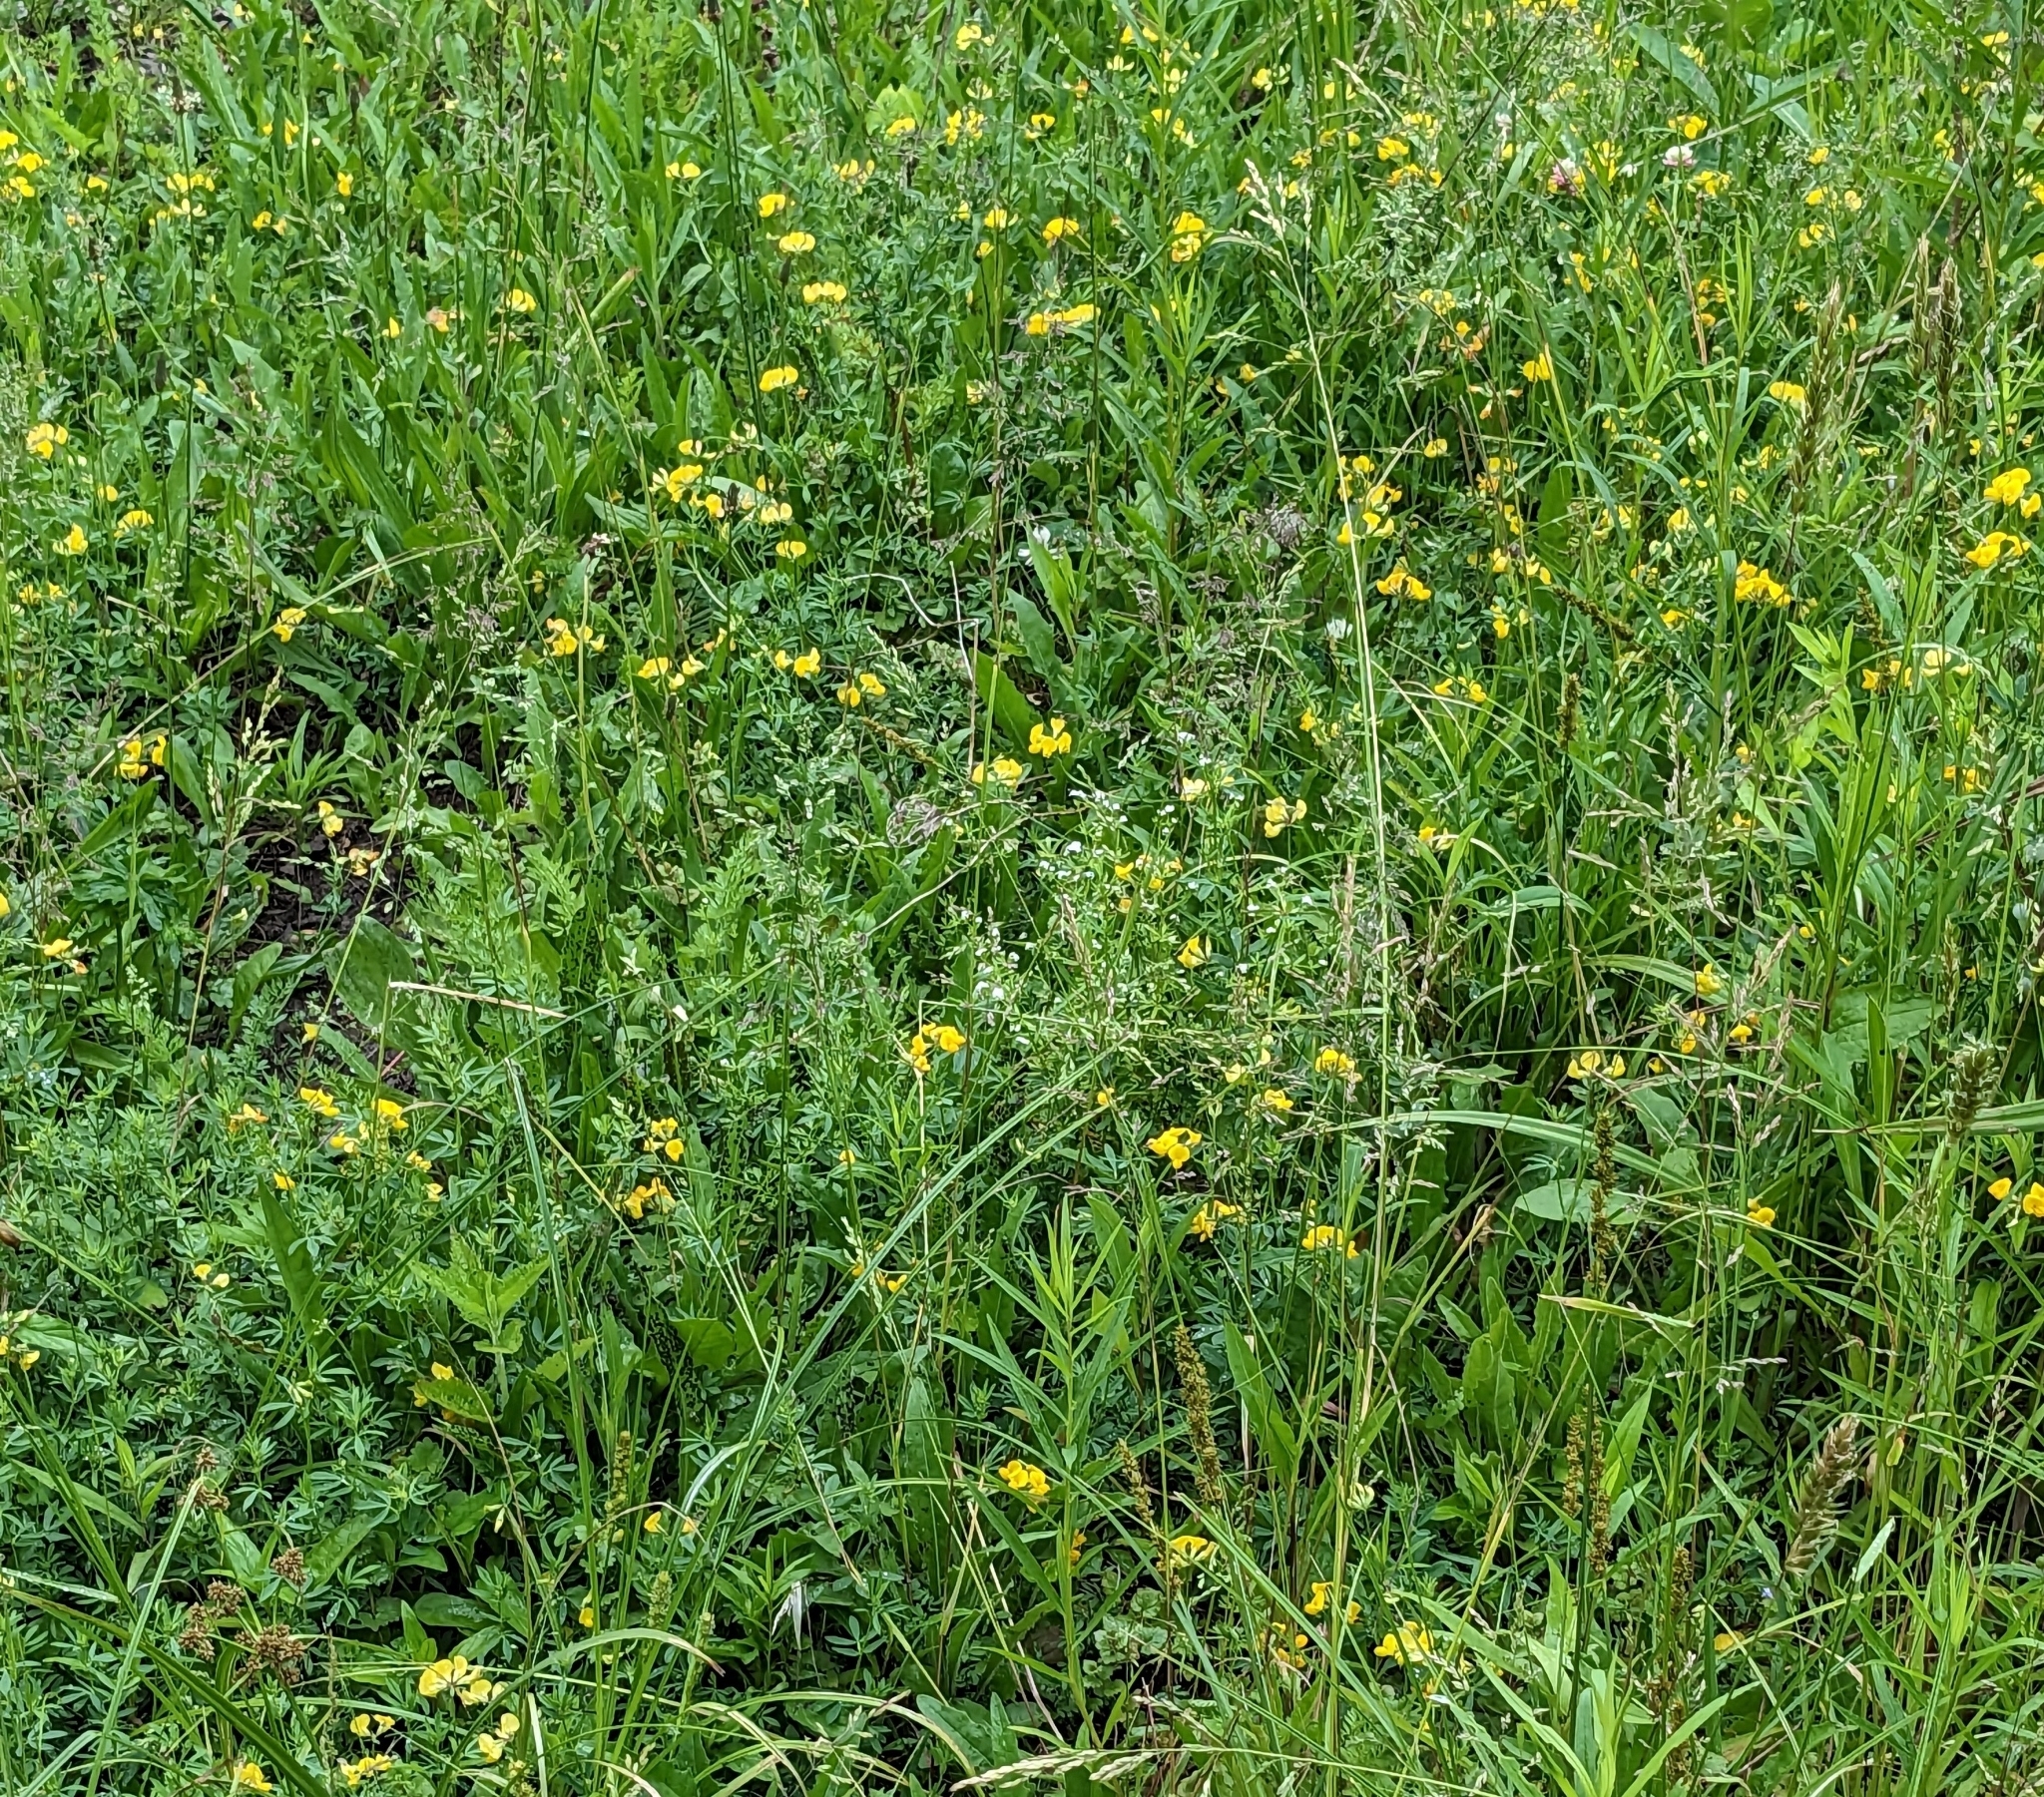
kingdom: Plantae
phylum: Tracheophyta
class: Magnoliopsida
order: Fabales
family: Fabaceae
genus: Lotus
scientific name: Lotus corniculatus
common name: Common bird's-foot-trefoil
